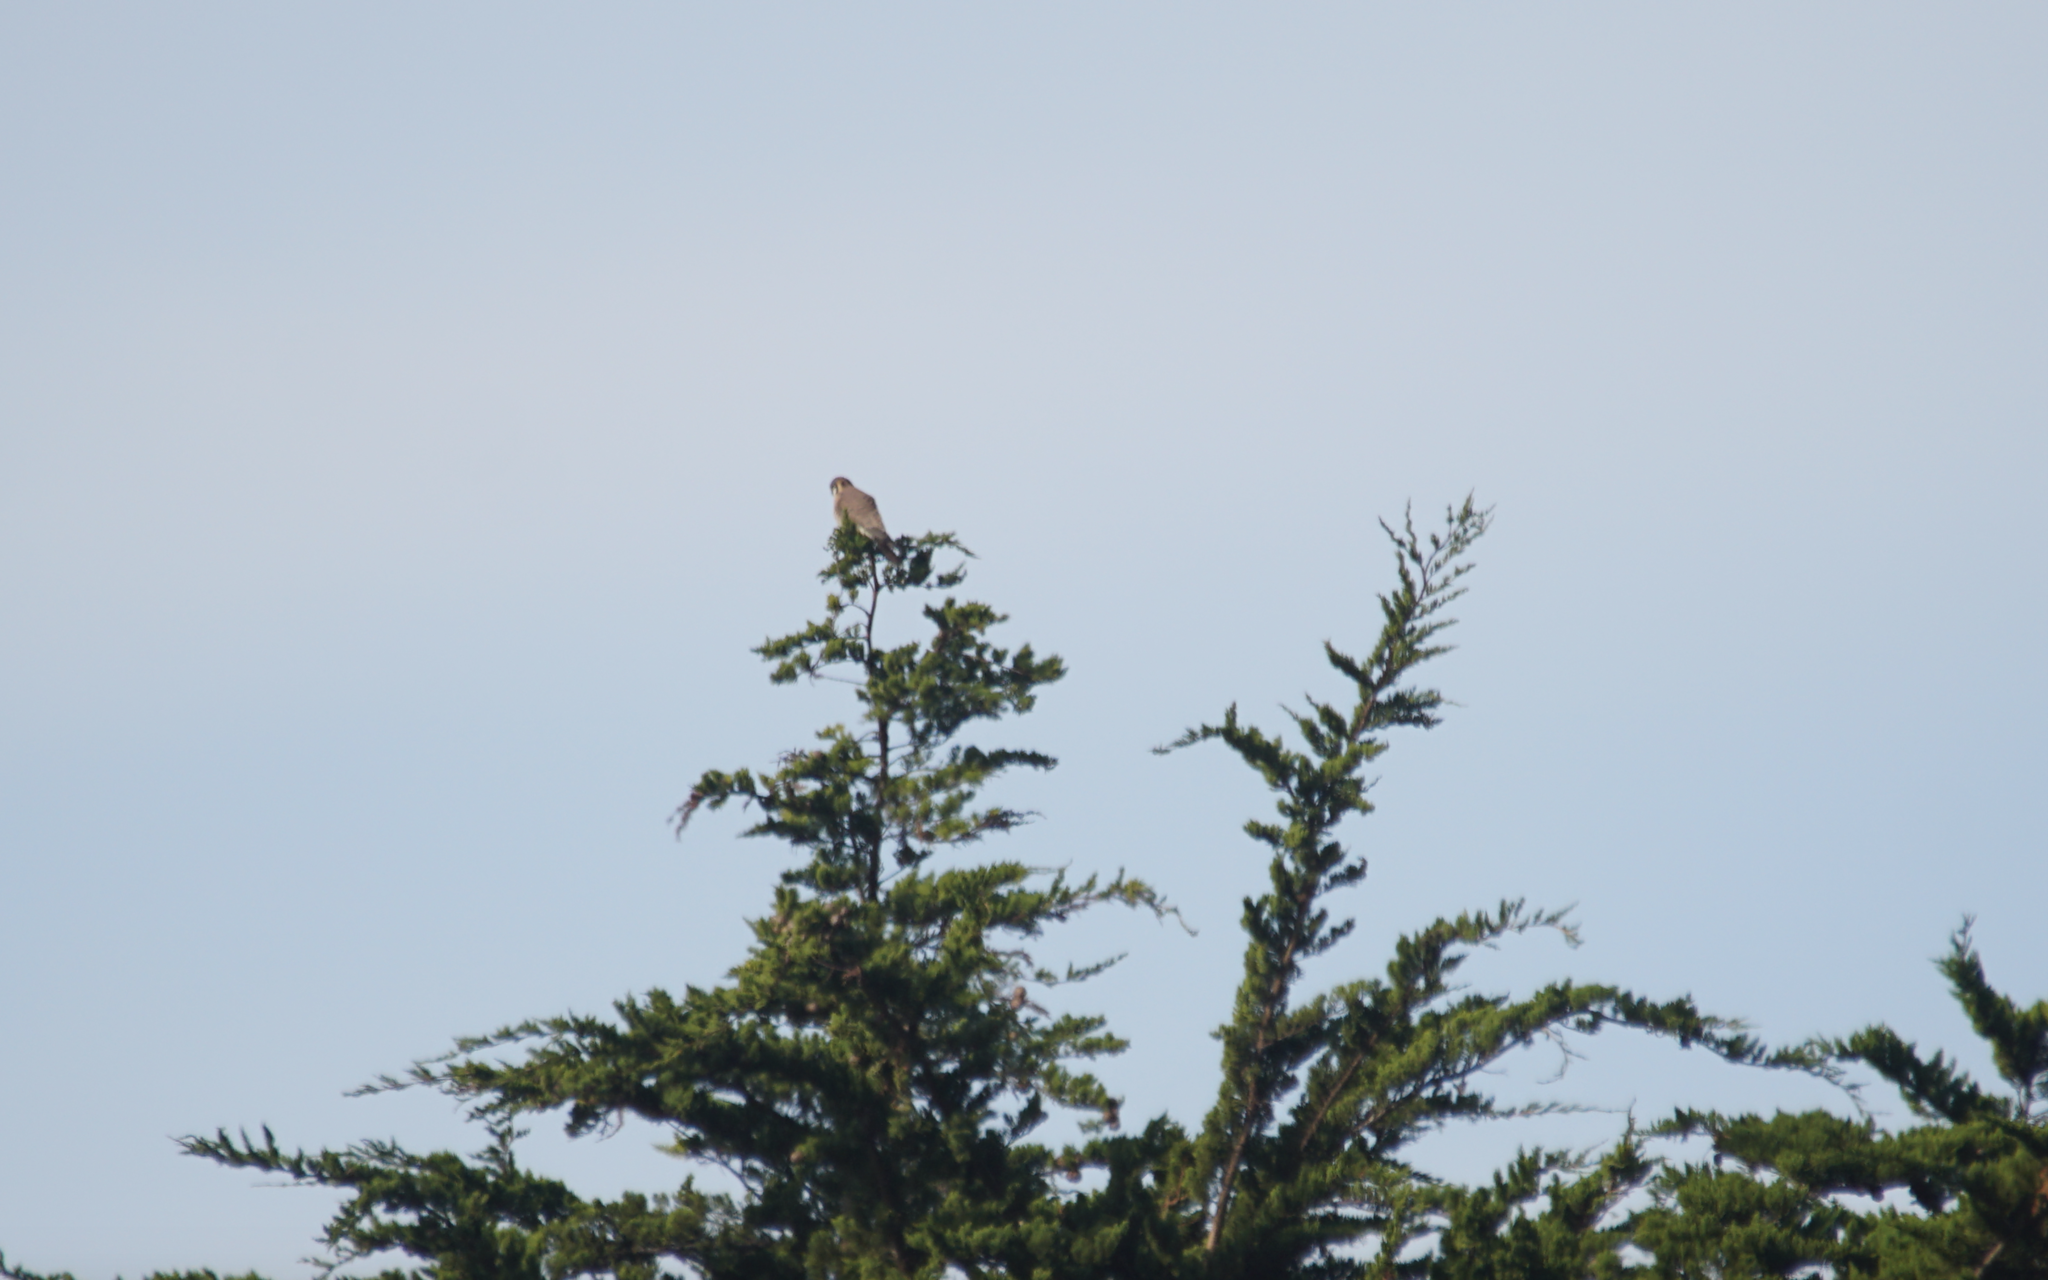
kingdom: Animalia
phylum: Chordata
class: Aves
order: Falconiformes
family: Falconidae
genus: Falco
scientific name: Falco sparverius
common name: American kestrel
